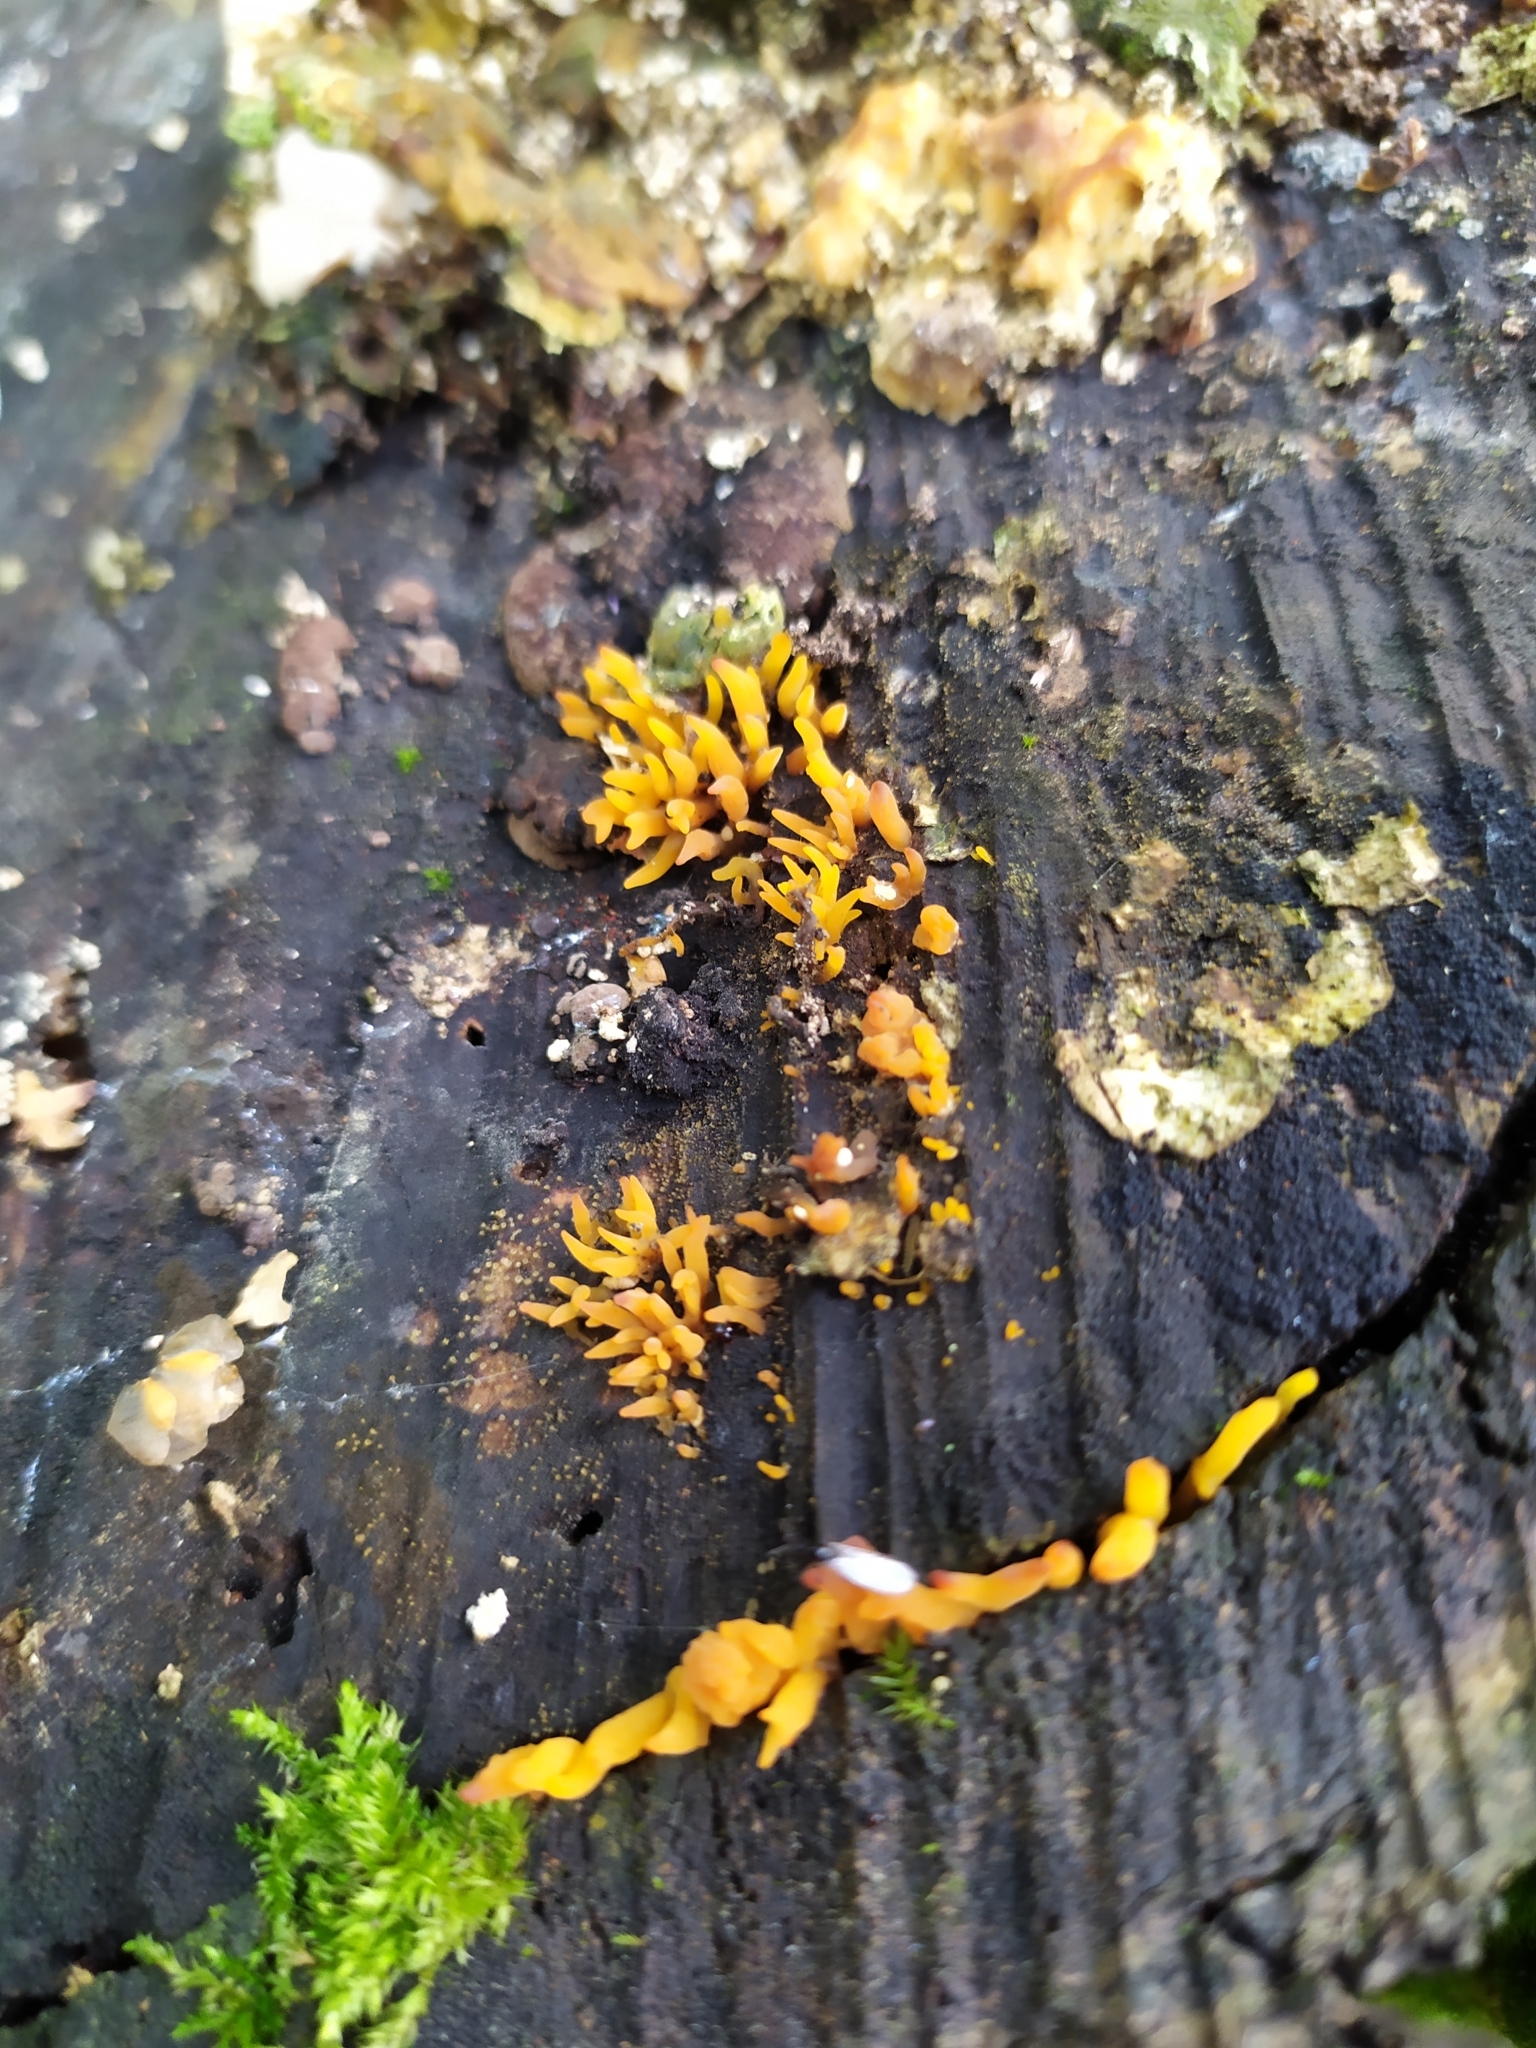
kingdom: Fungi
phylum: Basidiomycota
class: Dacrymycetes
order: Dacrymycetales
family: Dacrymycetaceae
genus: Calocera
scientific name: Calocera cornea
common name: Small stagshorn
